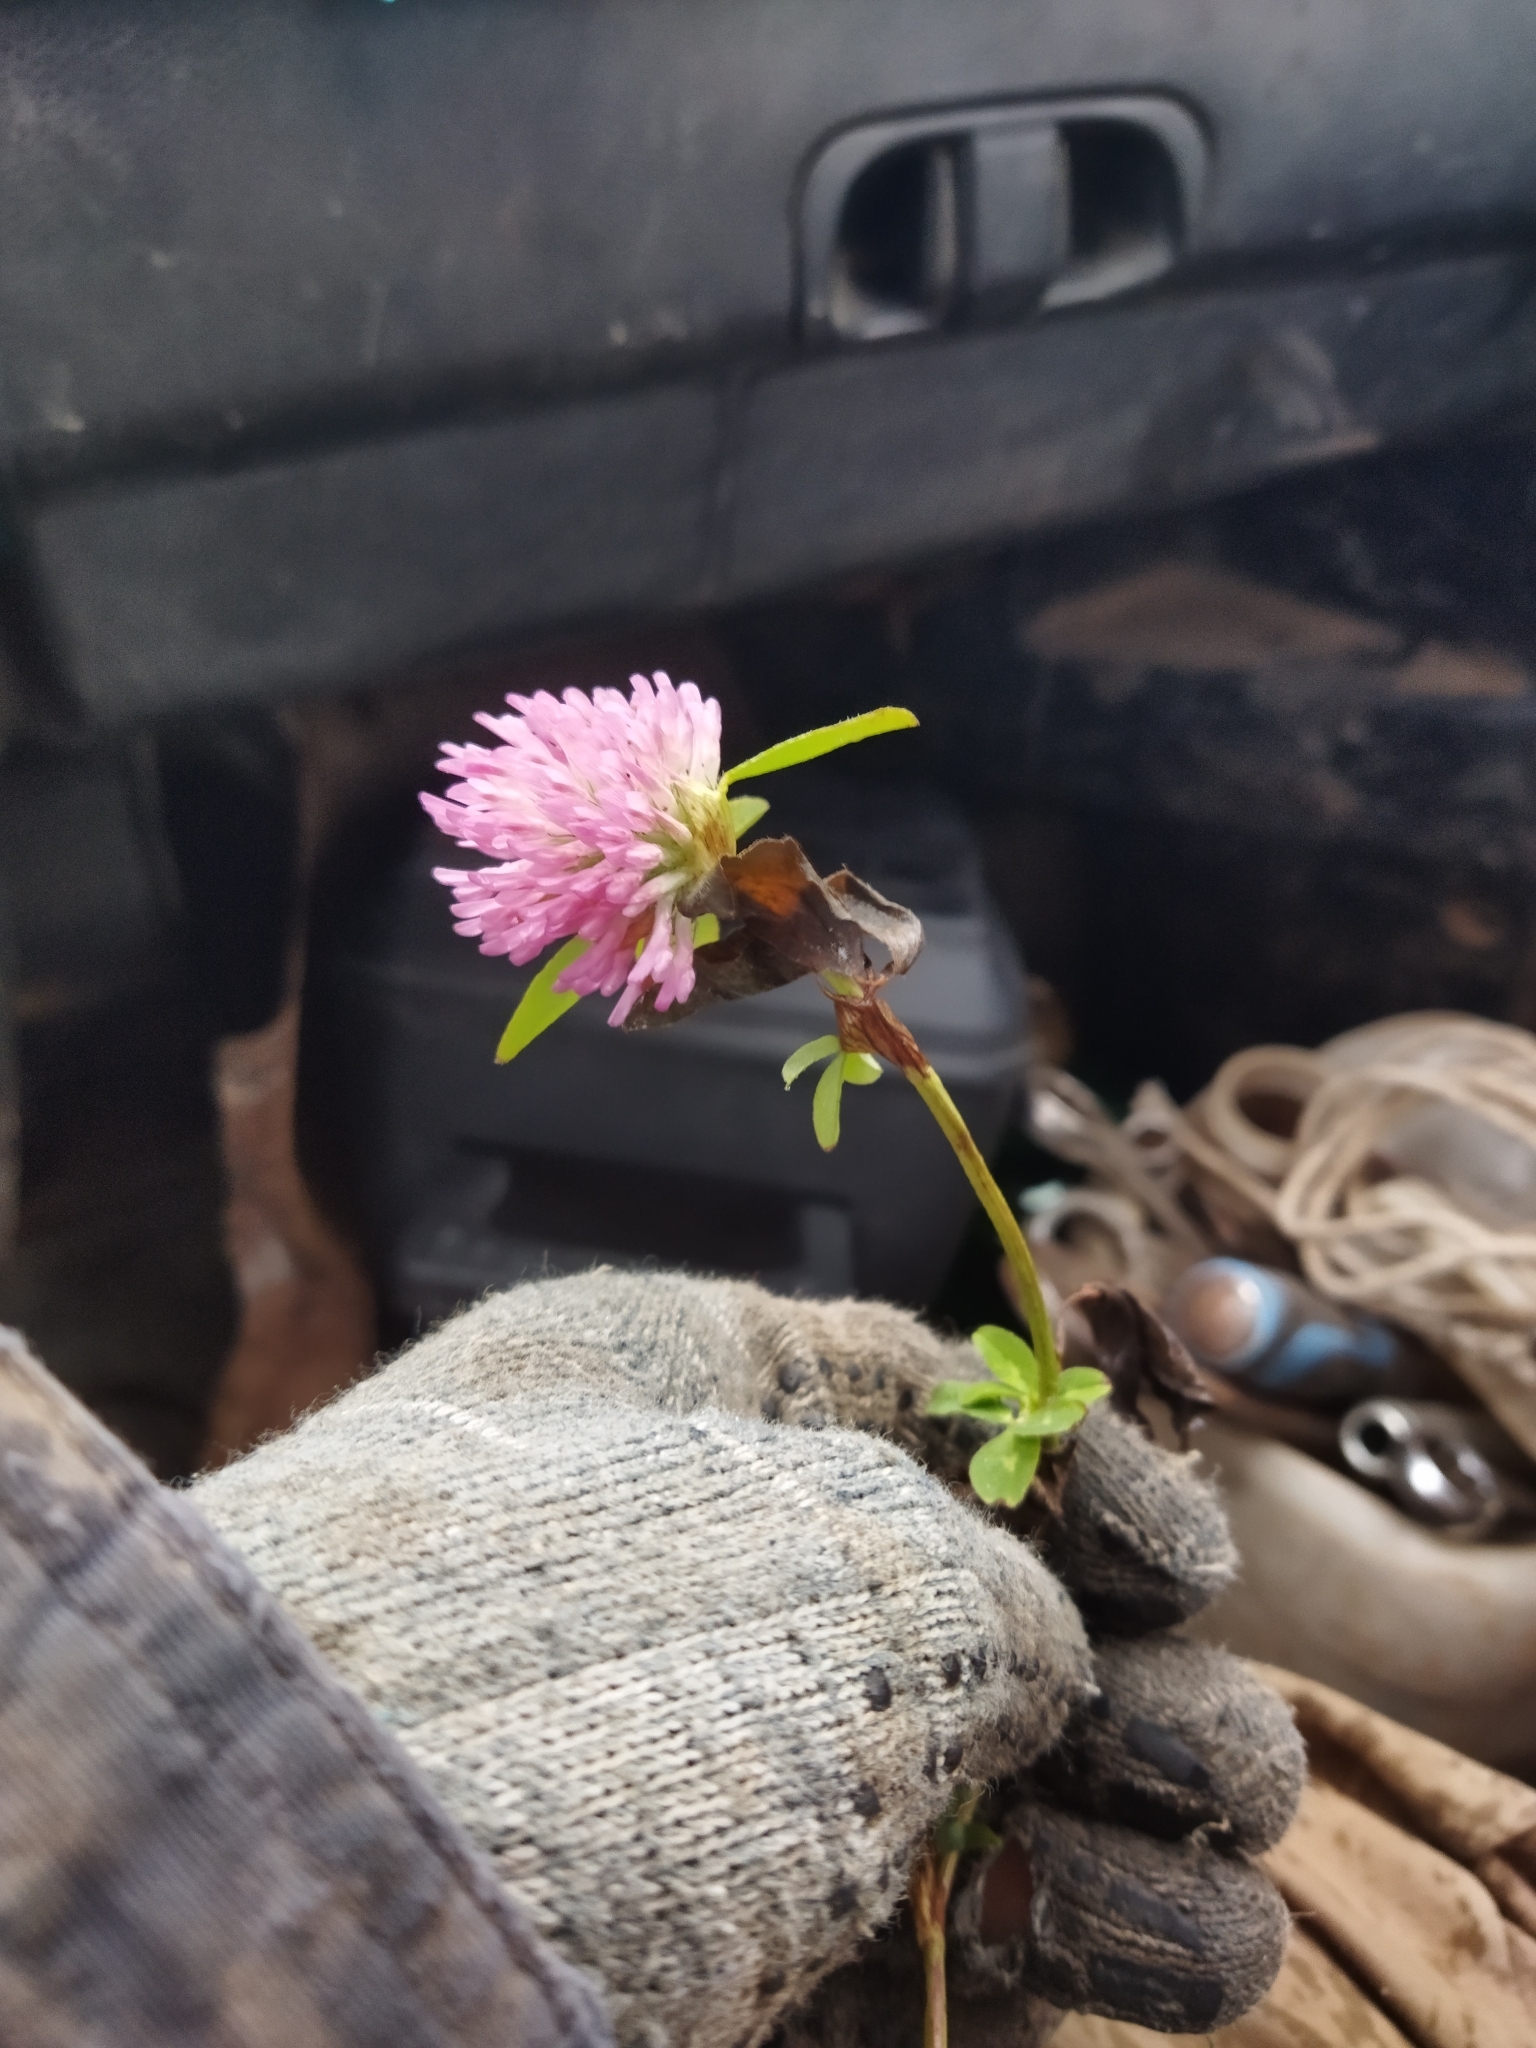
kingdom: Plantae
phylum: Tracheophyta
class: Magnoliopsida
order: Fabales
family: Fabaceae
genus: Trifolium
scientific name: Trifolium pratense
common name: Red clover
